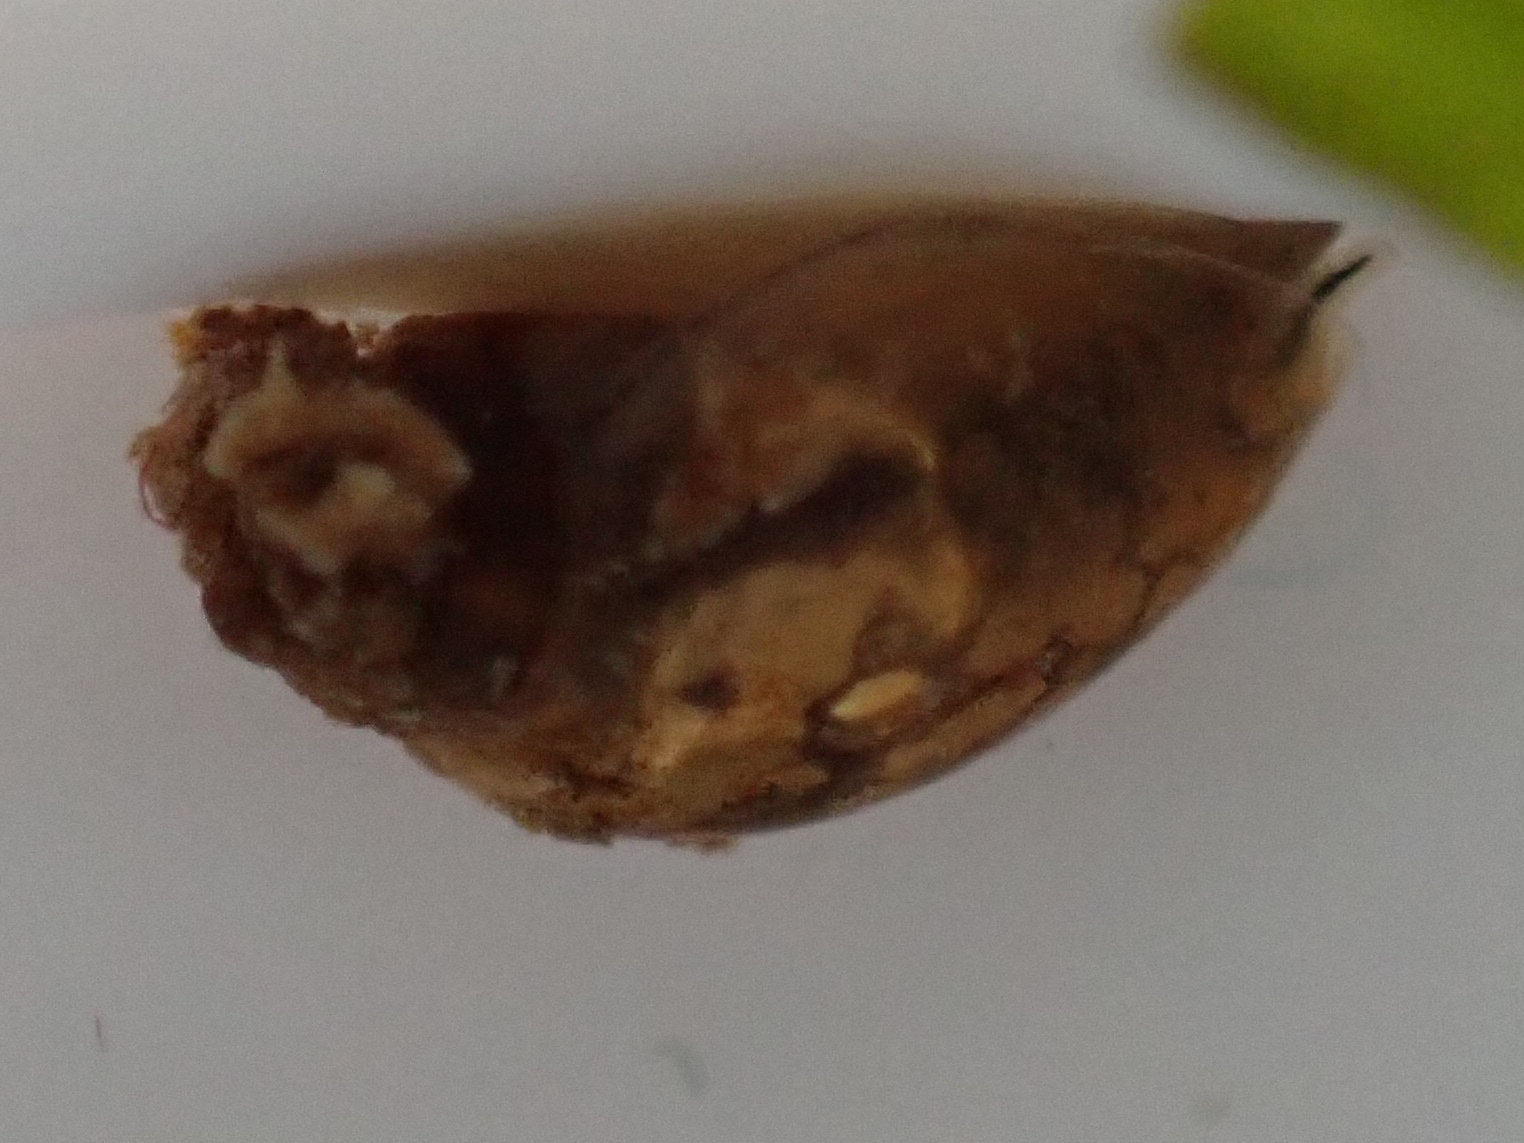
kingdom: Animalia
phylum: Mollusca
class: Gastropoda
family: Physidae
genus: Physella
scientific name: Physella acuta
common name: European physa
